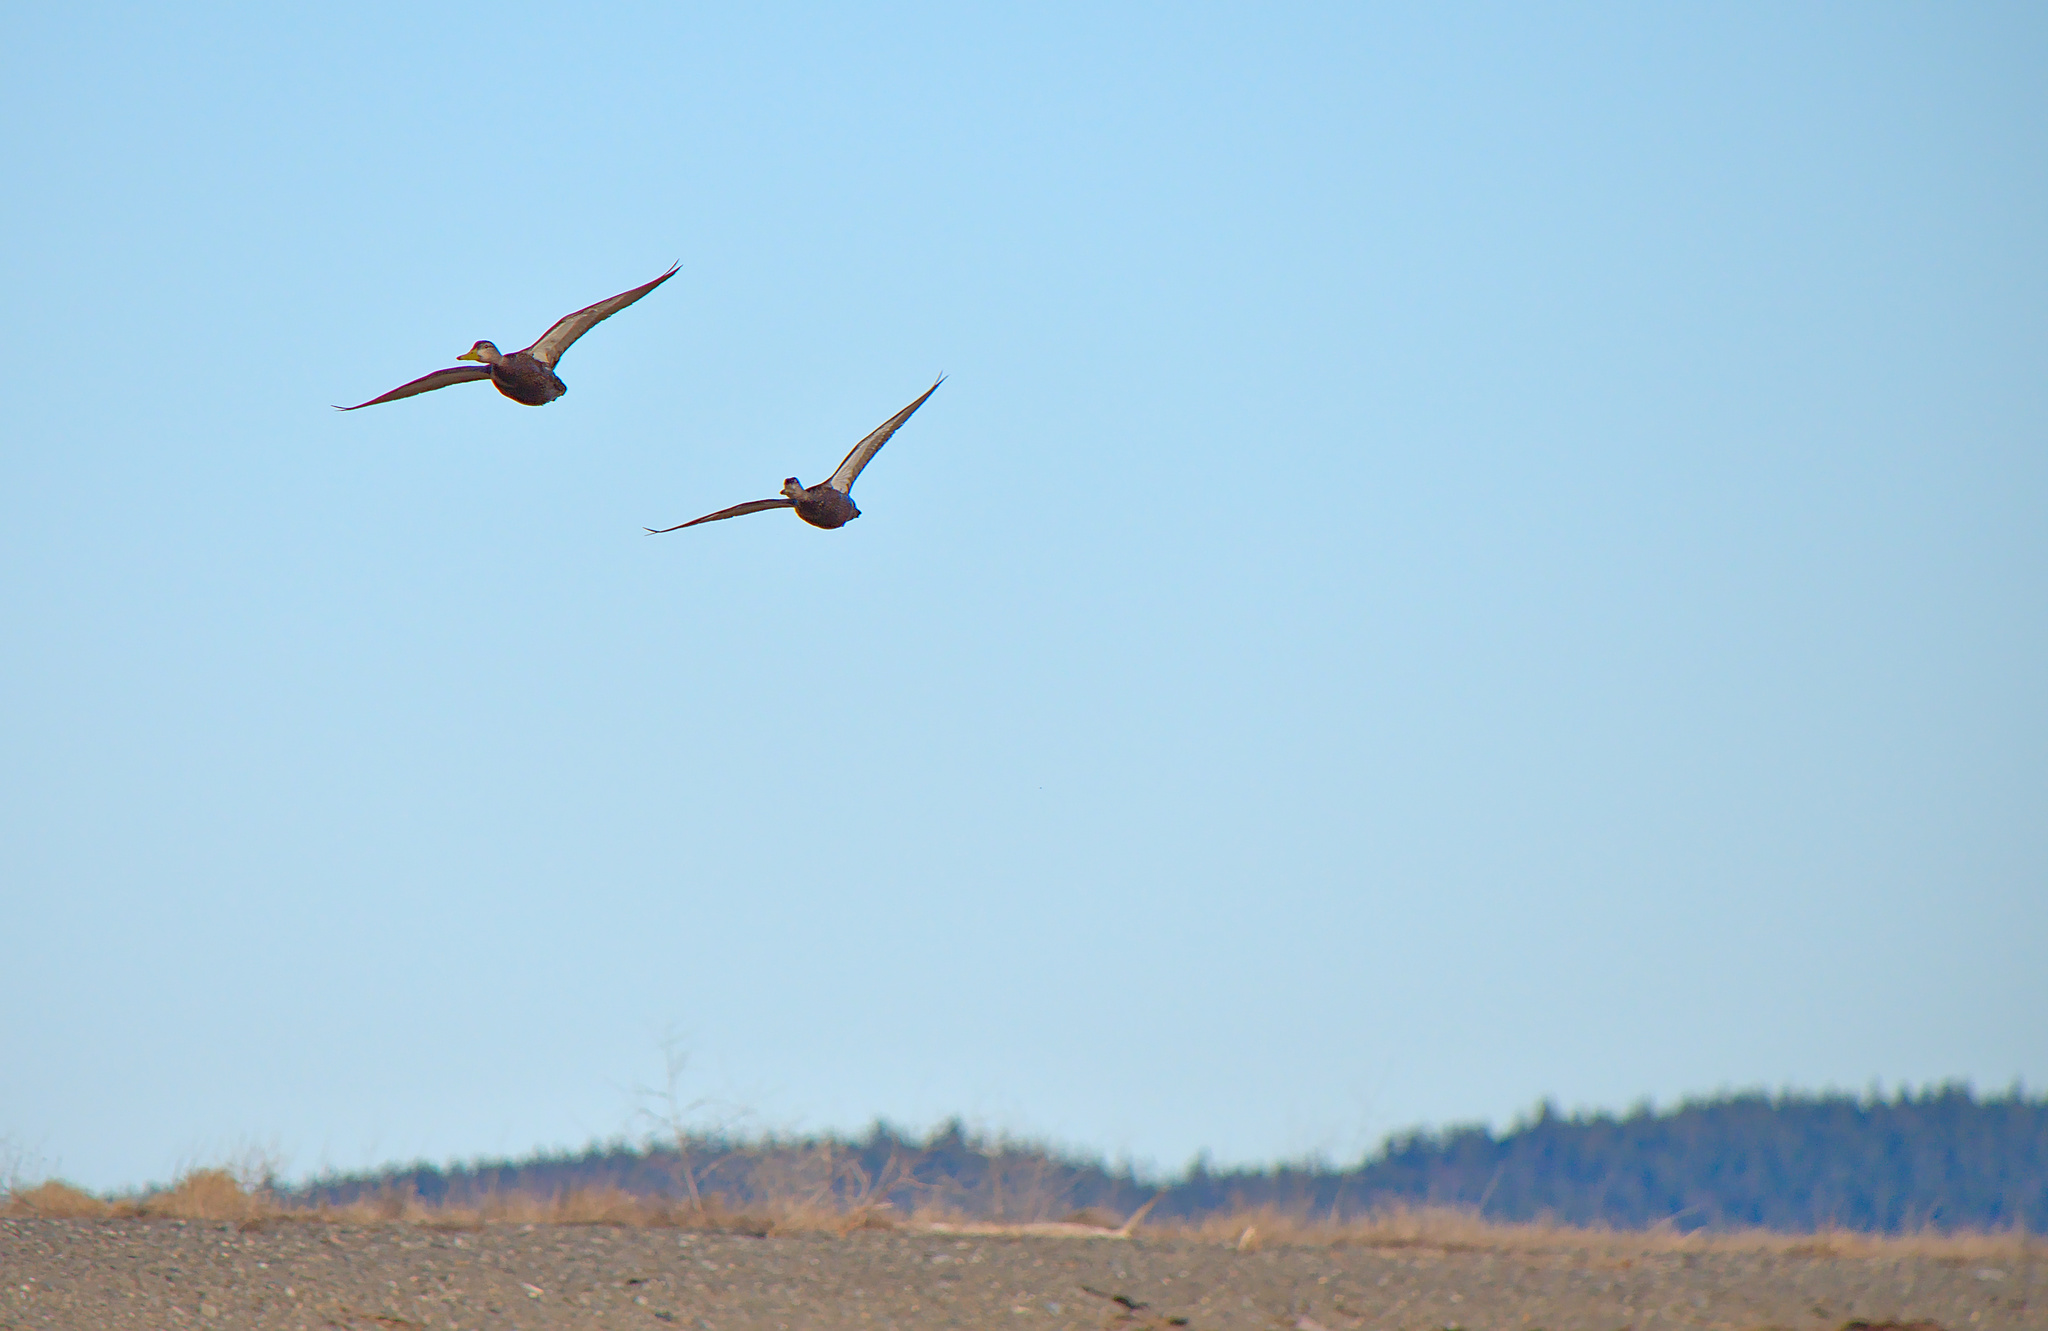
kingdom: Animalia
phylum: Chordata
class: Aves
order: Anseriformes
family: Anatidae
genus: Anas
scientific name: Anas rubripes
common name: American black duck
